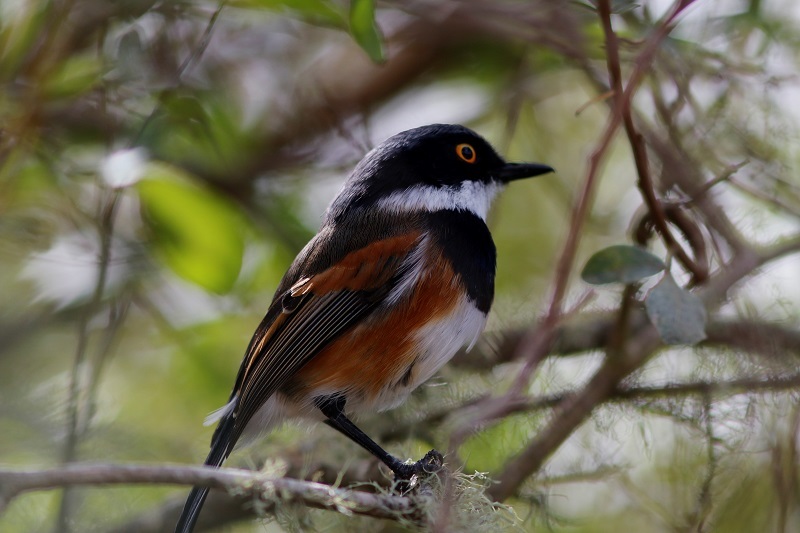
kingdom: Animalia
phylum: Chordata
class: Aves
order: Passeriformes
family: Platysteiridae
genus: Batis
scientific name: Batis capensis
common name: Cape batis
